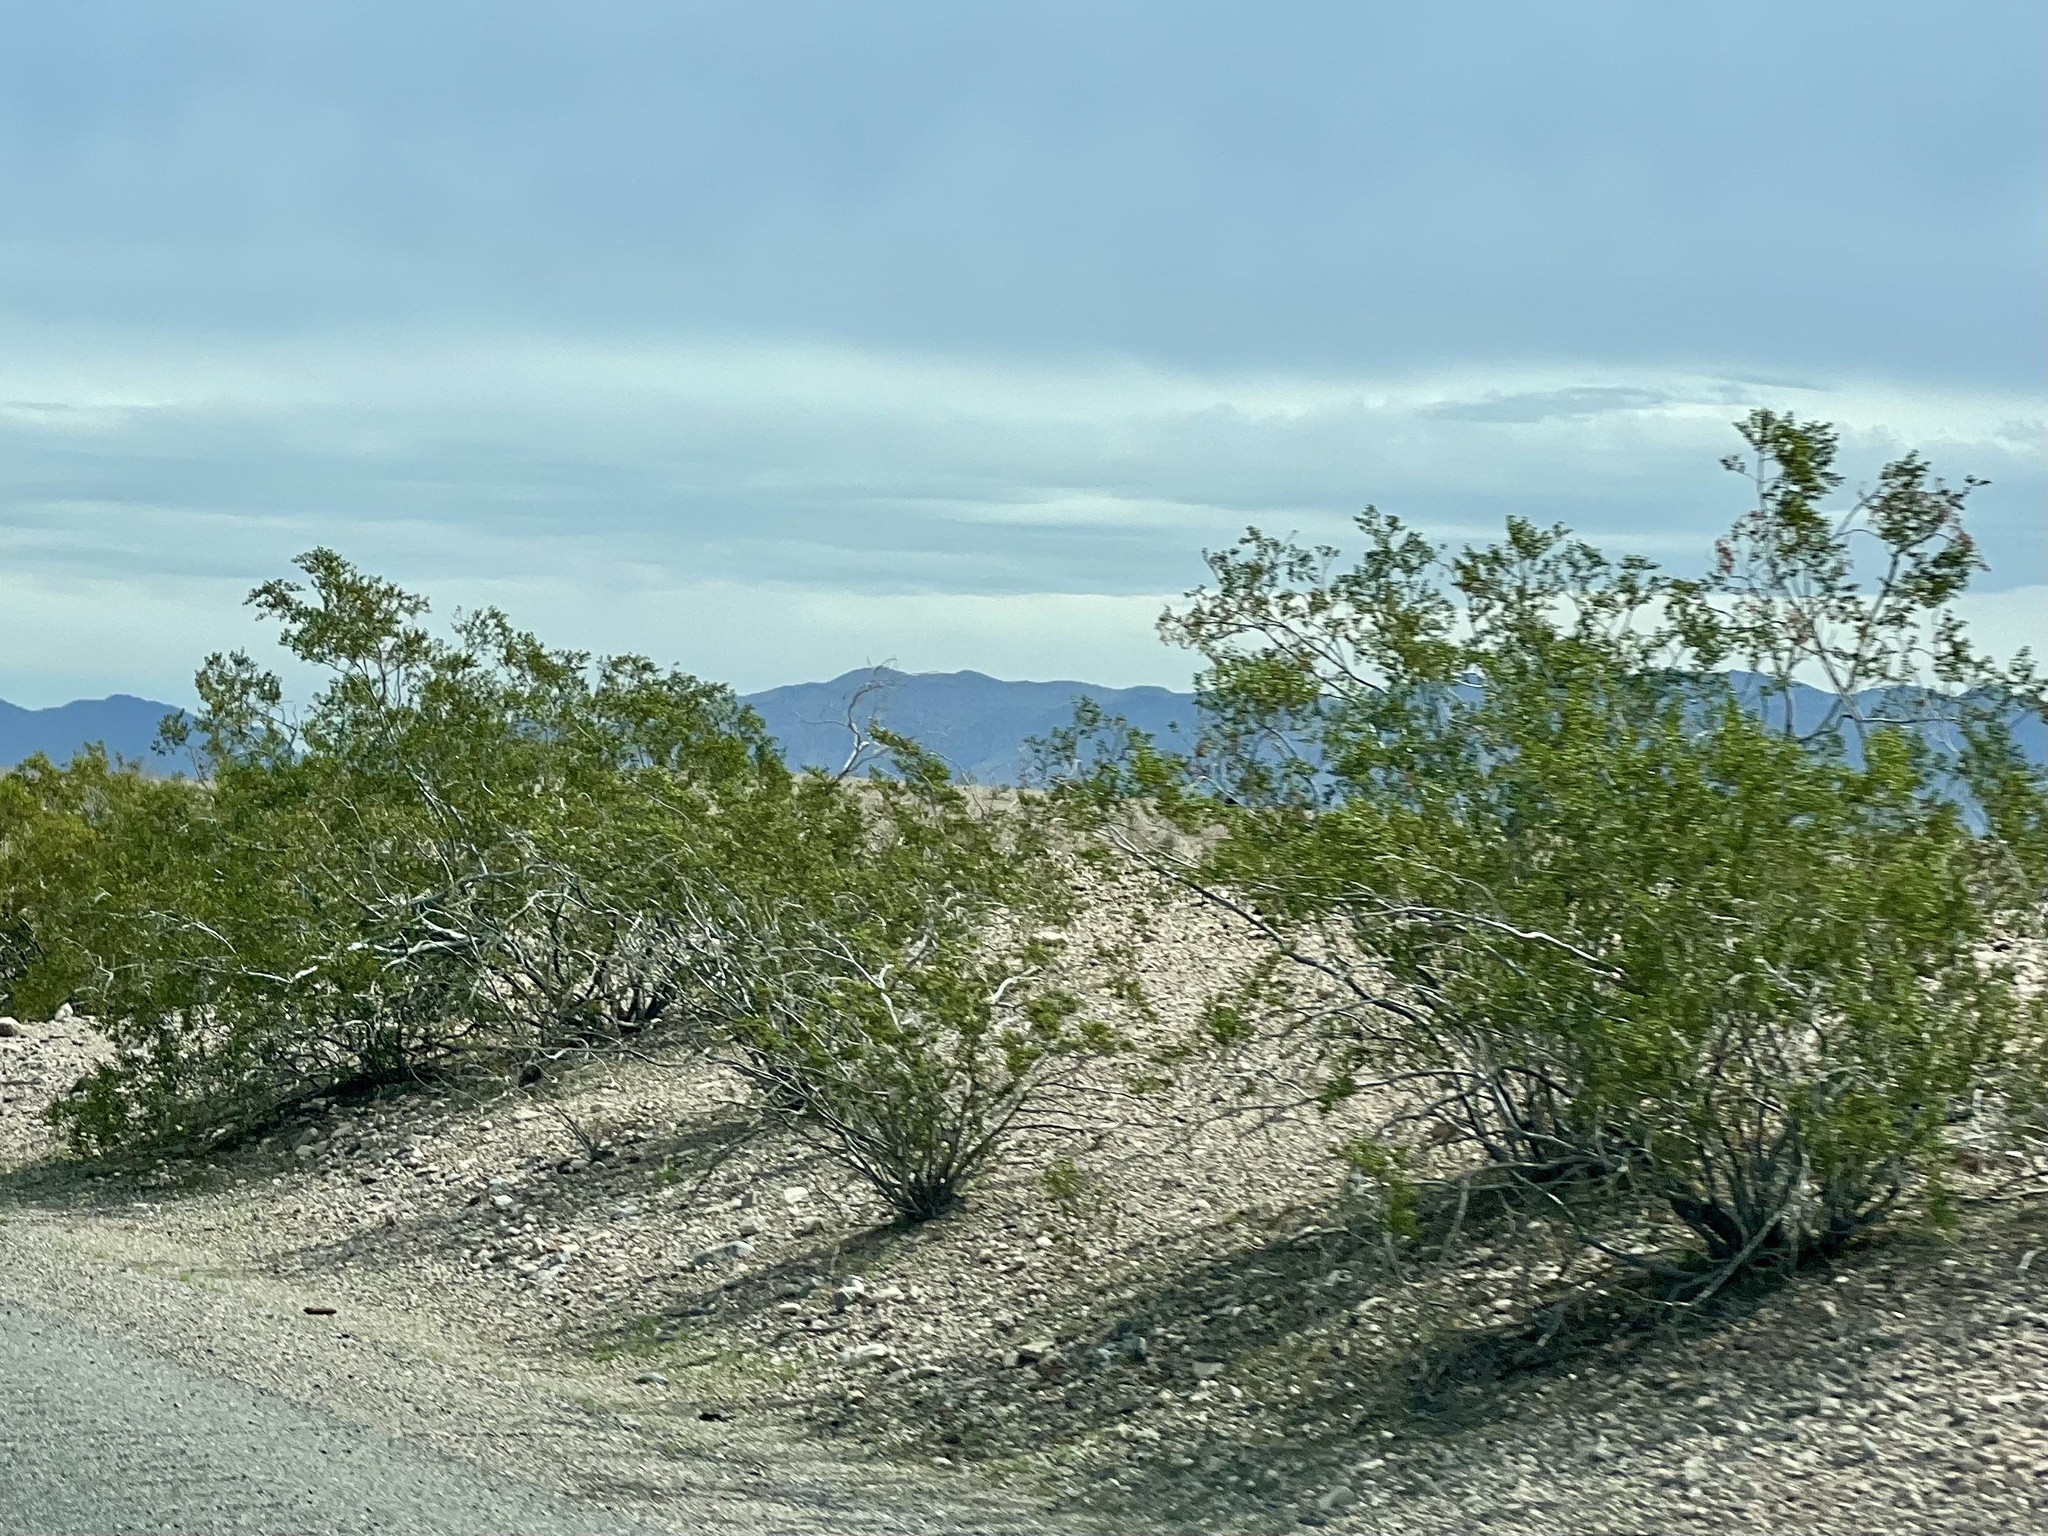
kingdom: Plantae
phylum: Tracheophyta
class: Magnoliopsida
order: Zygophyllales
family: Zygophyllaceae
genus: Larrea
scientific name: Larrea tridentata
